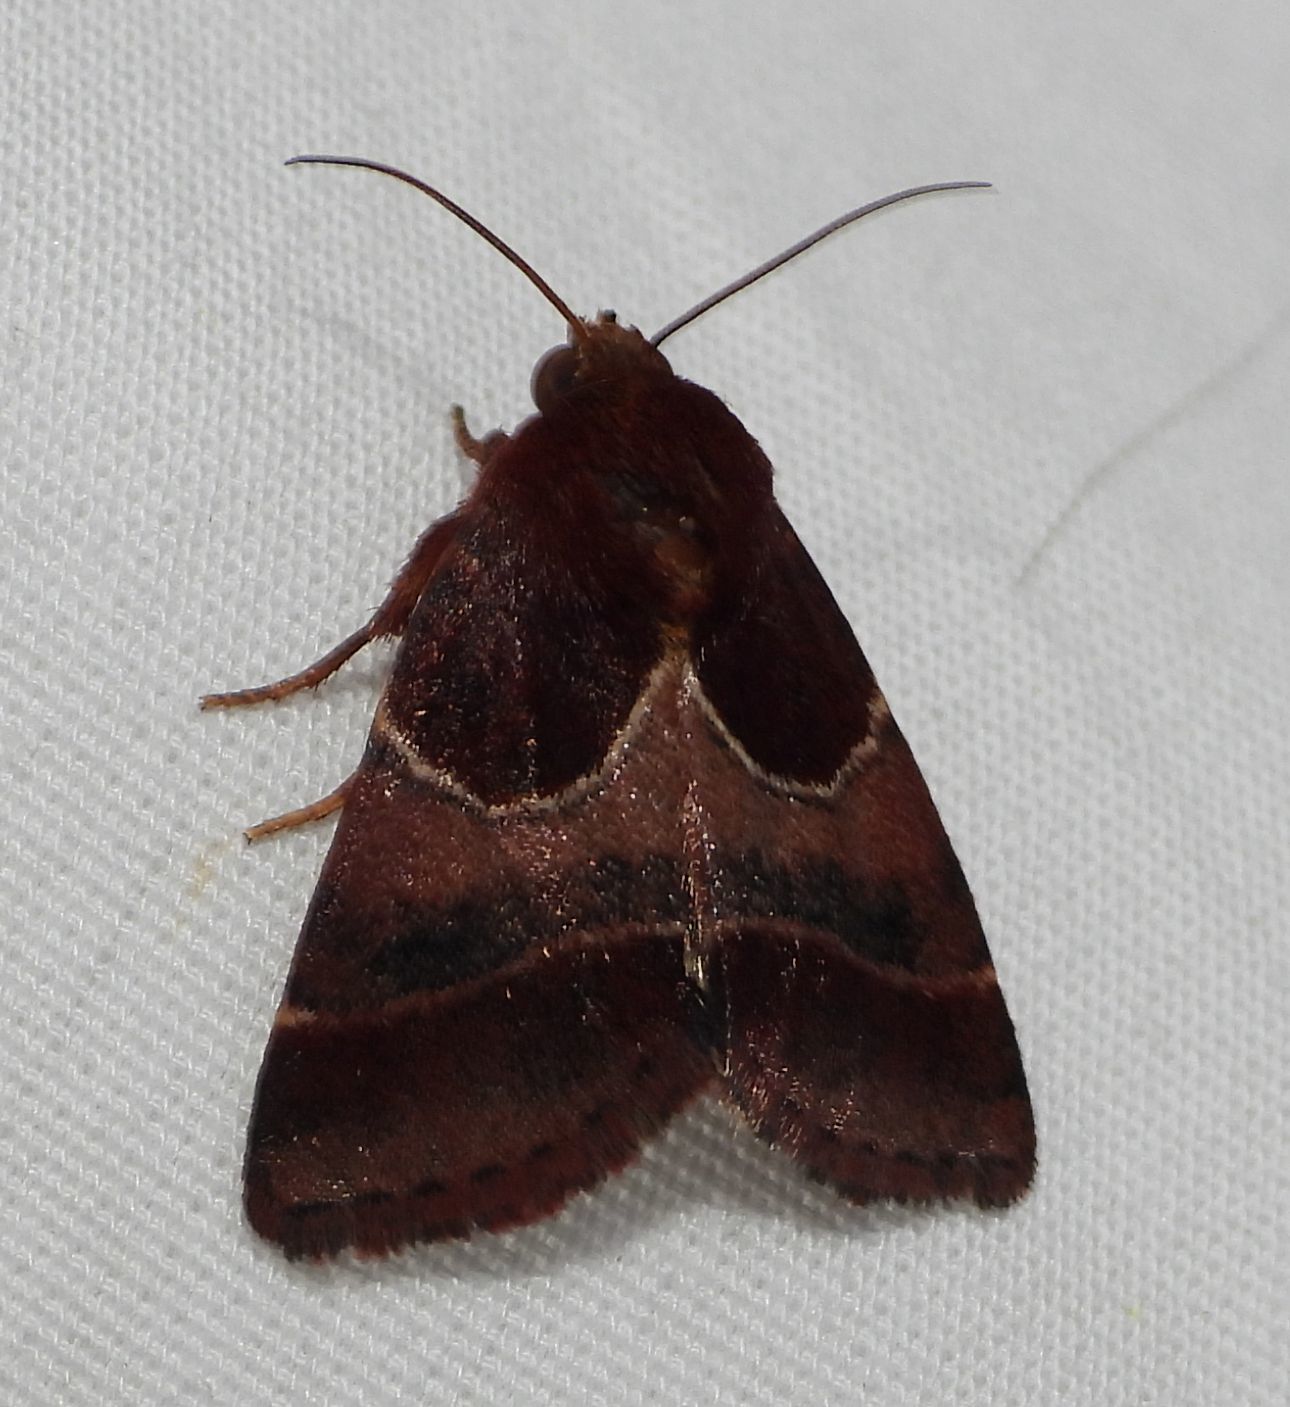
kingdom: Animalia
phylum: Arthropoda
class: Insecta
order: Lepidoptera
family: Noctuidae
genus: Schinia
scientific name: Schinia arcigera
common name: Arcigera flower moth
